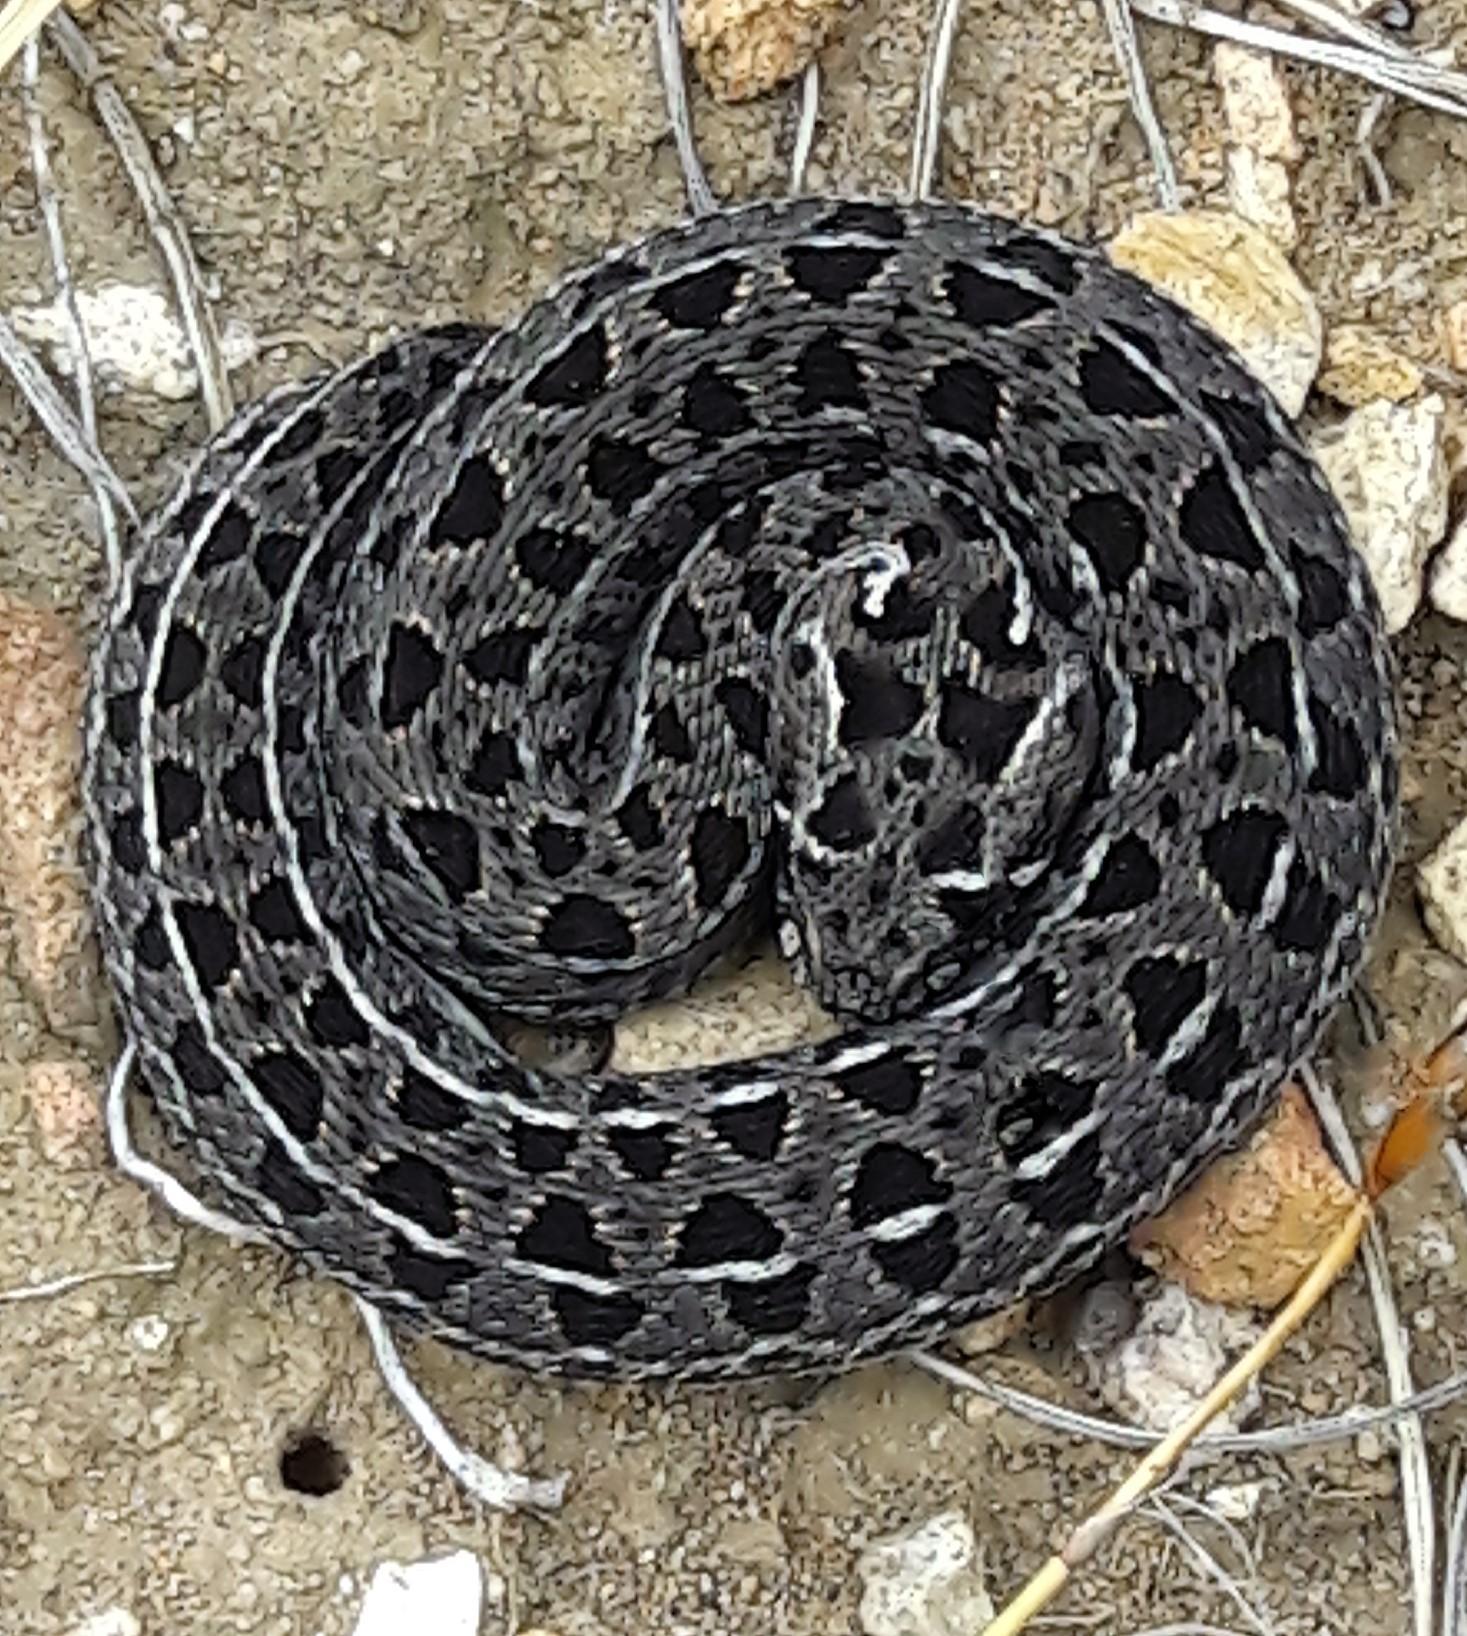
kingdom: Animalia
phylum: Chordata
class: Squamata
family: Viperidae
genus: Bitis
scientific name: Bitis atropos
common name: Mountain adder
